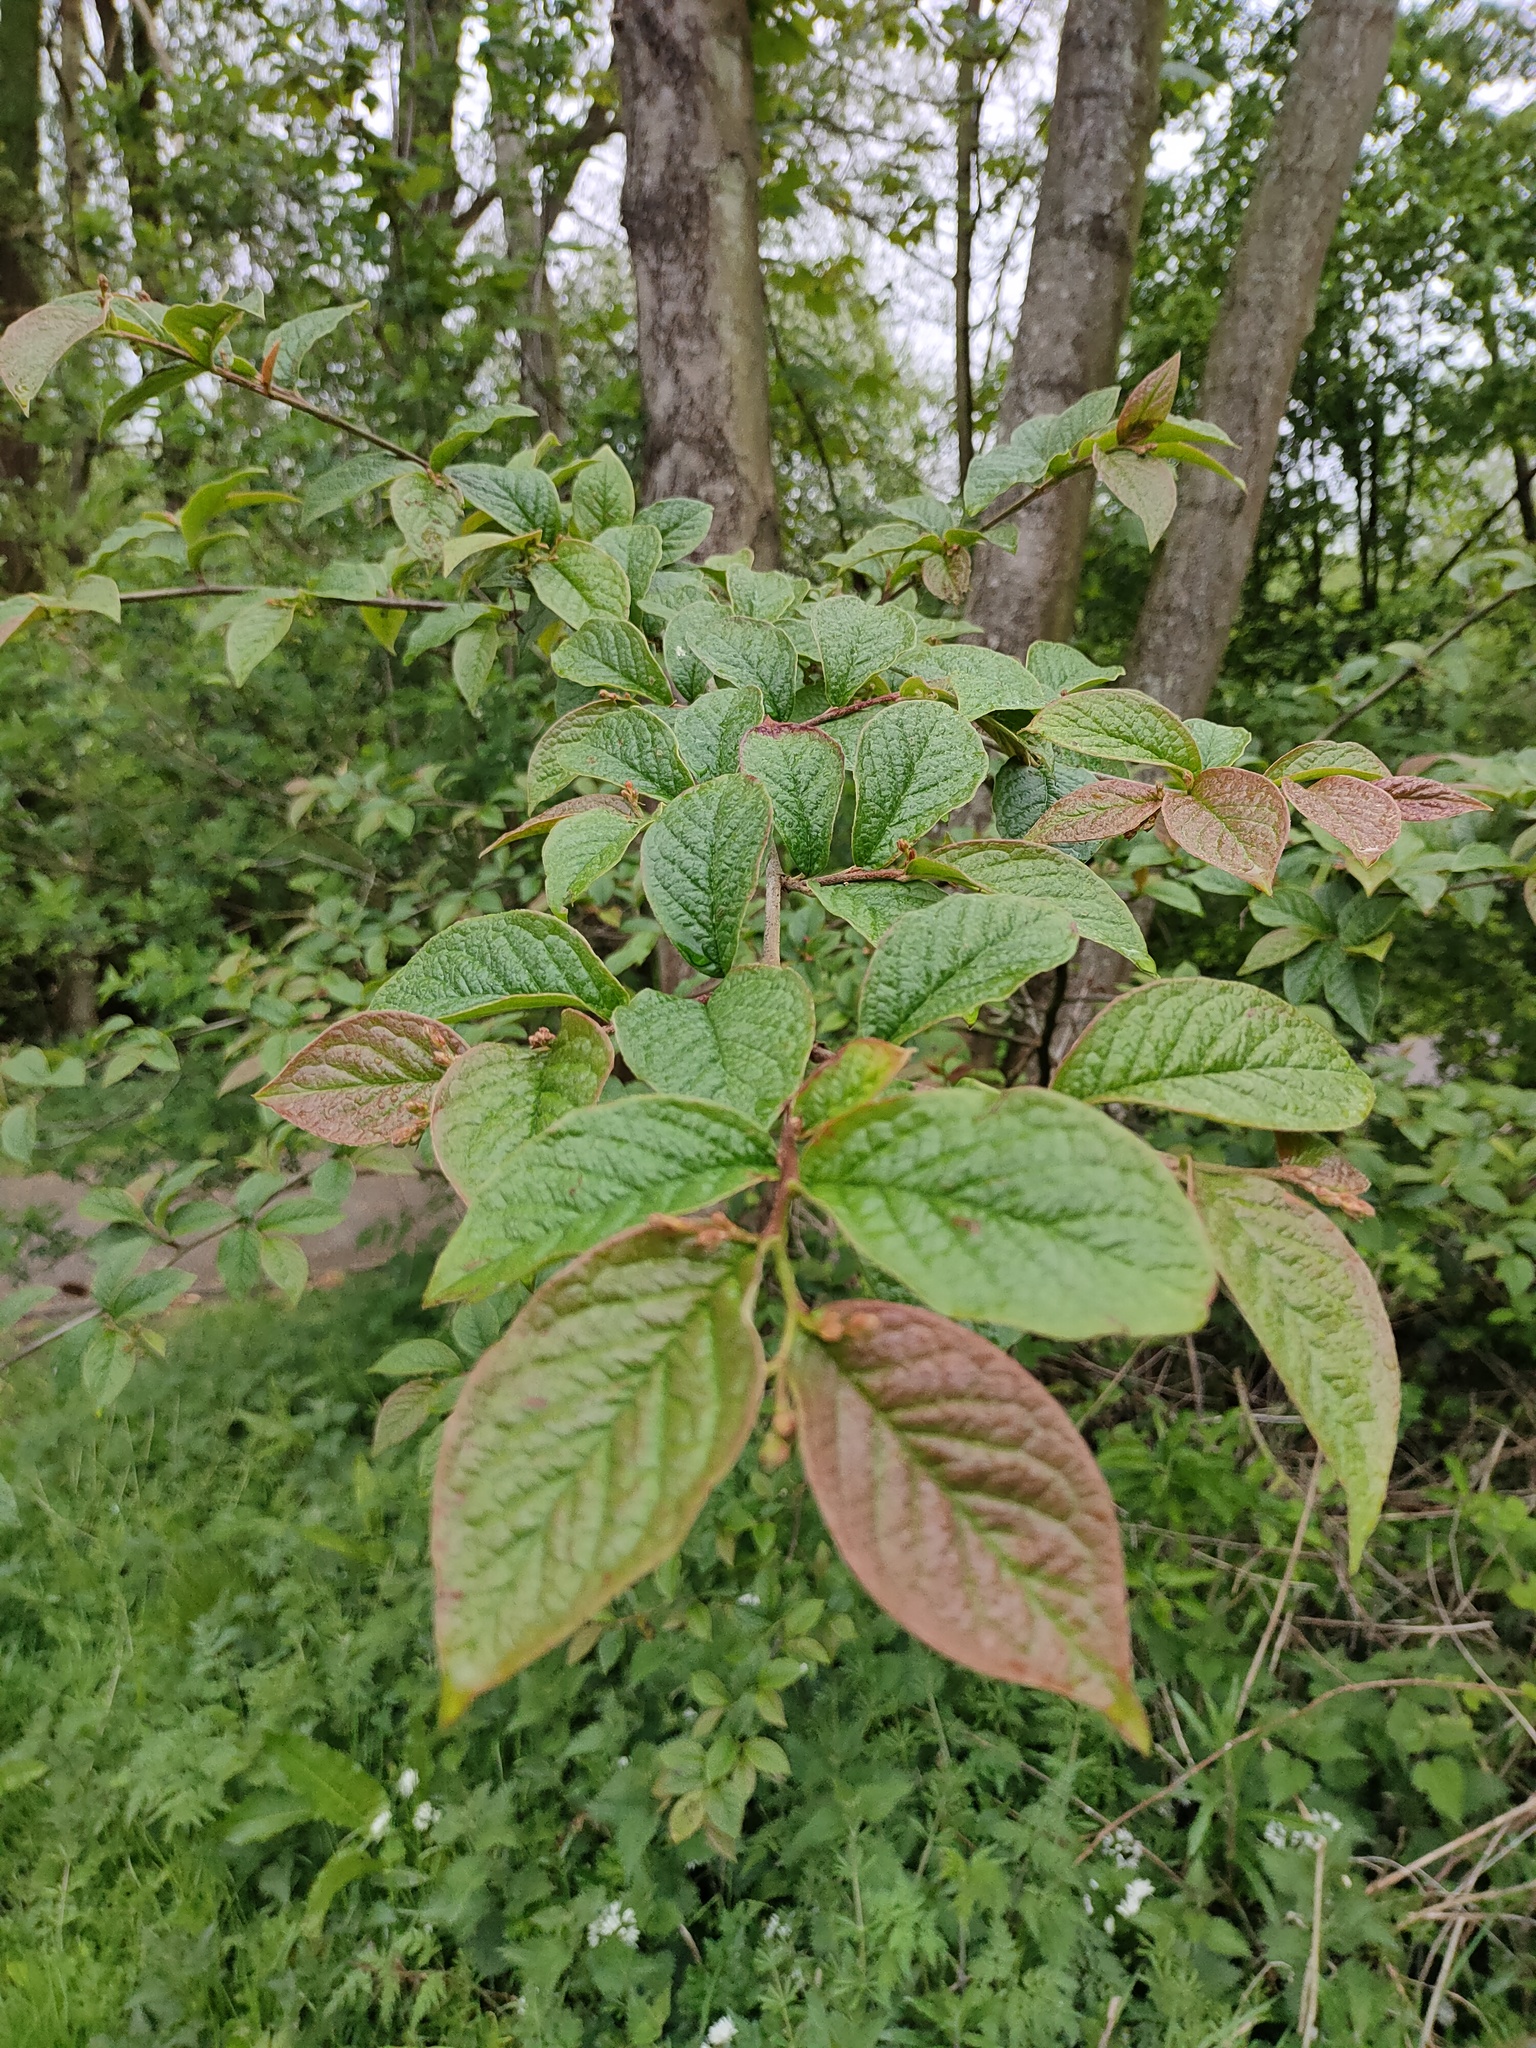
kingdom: Plantae
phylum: Tracheophyta
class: Magnoliopsida
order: Rosales
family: Rosaceae
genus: Cotoneaster
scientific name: Cotoneaster bullatus
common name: Hollyberry cotoneaster
